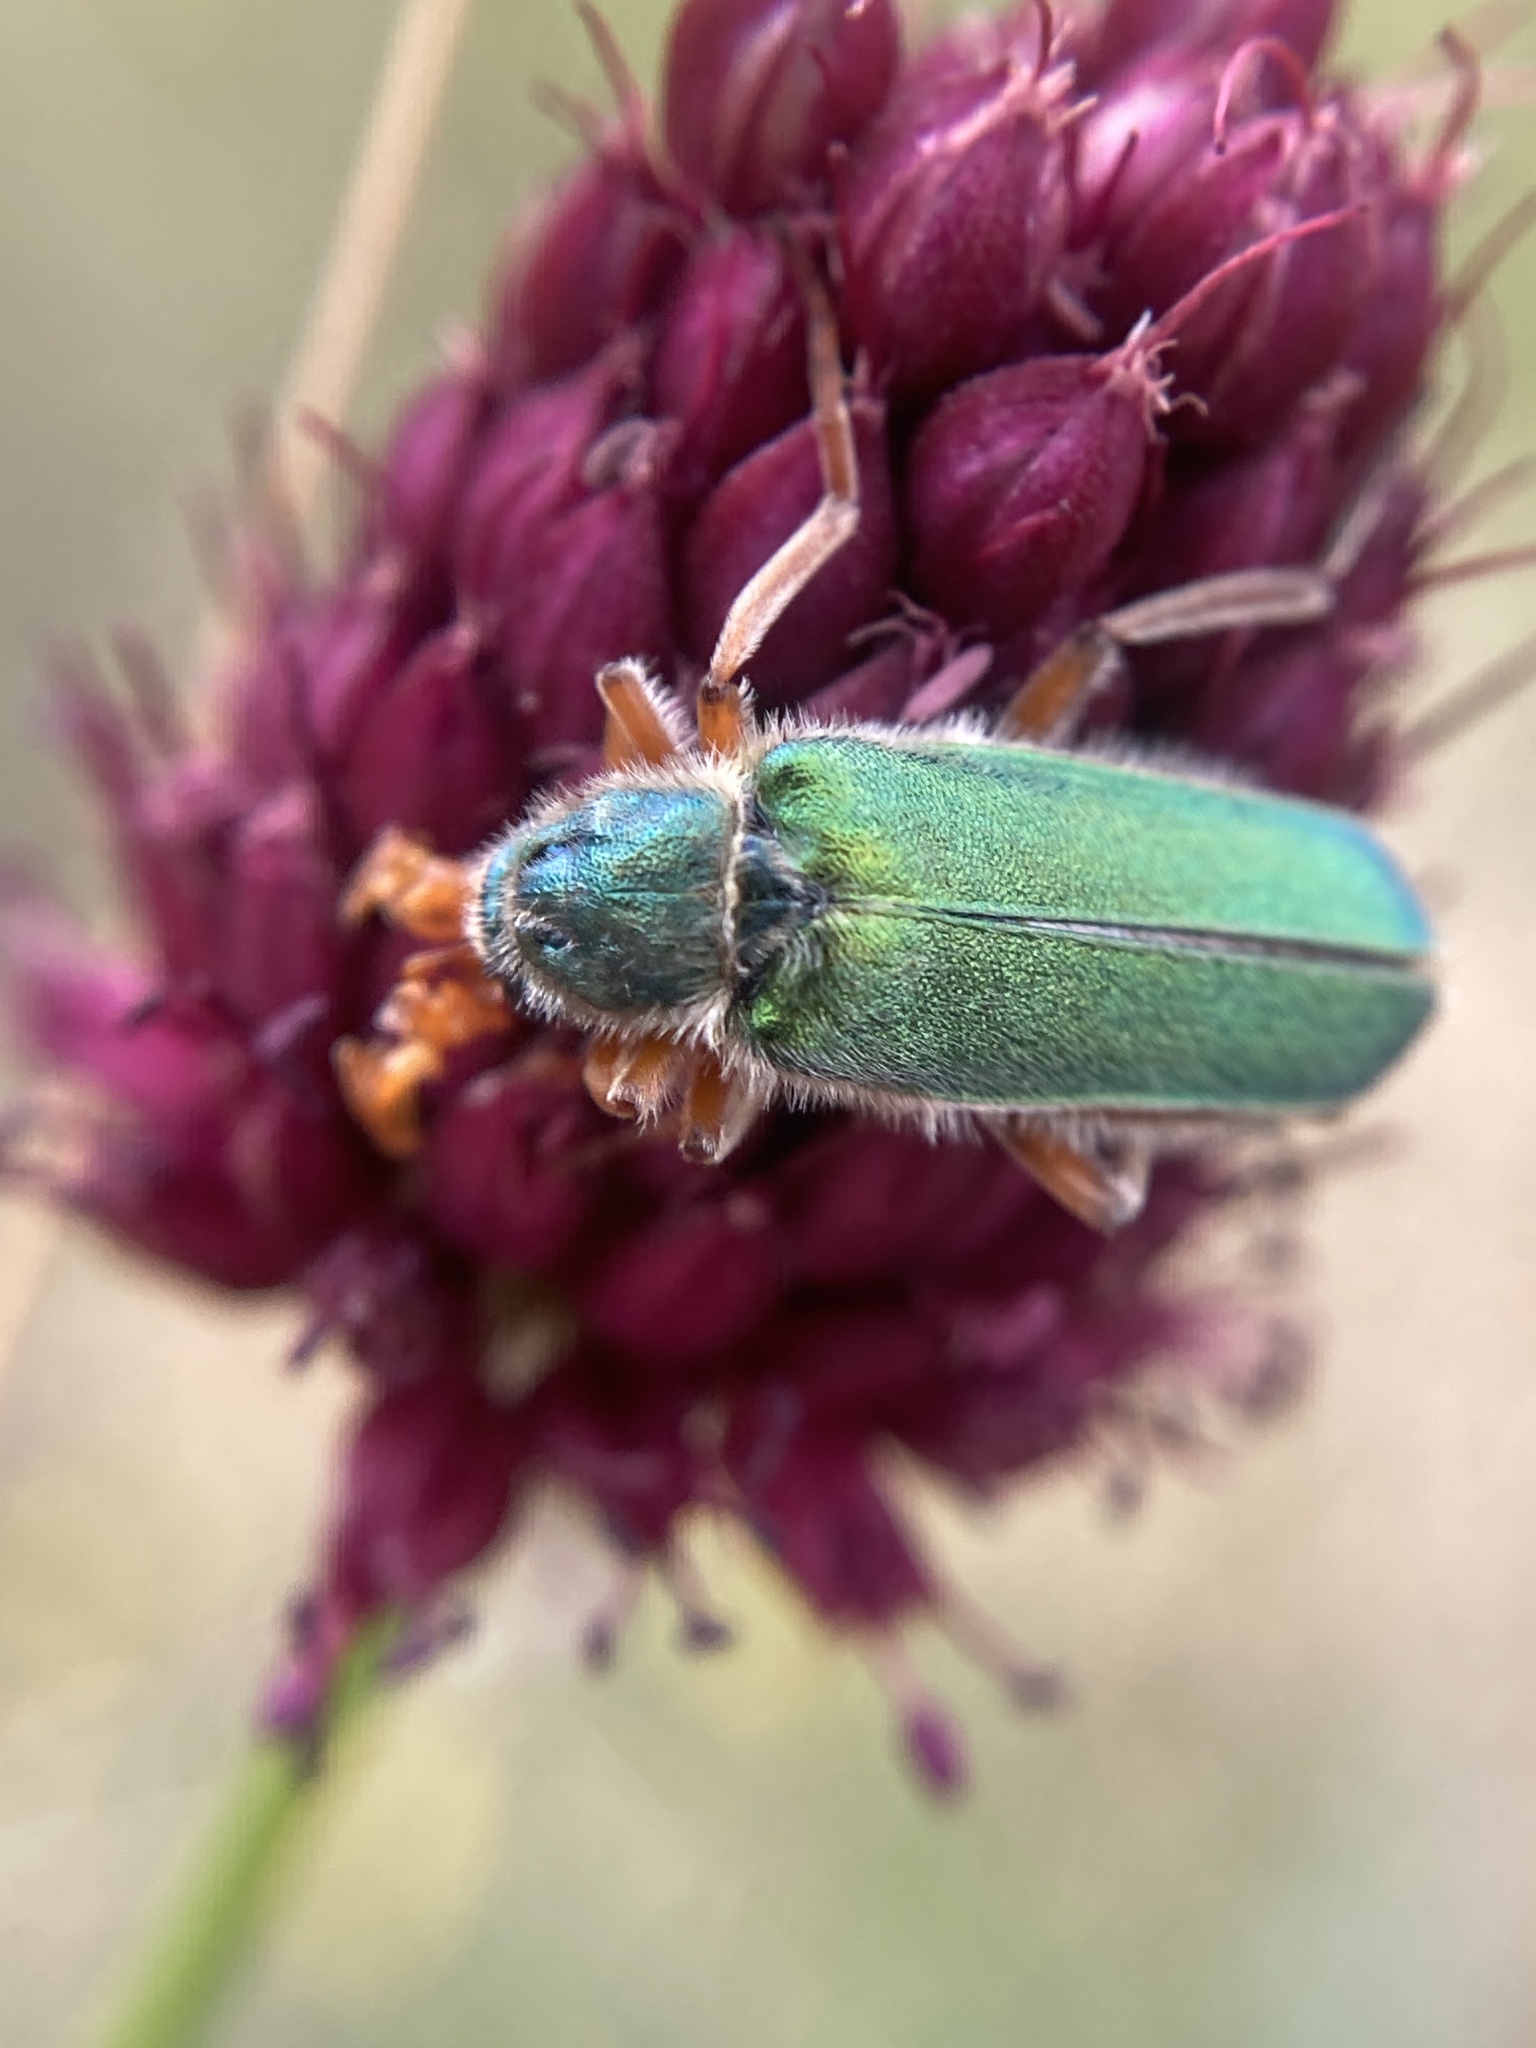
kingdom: Animalia
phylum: Arthropoda
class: Insecta
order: Coleoptera
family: Meloidae
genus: Cerocoma
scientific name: Cerocoma schreberi
